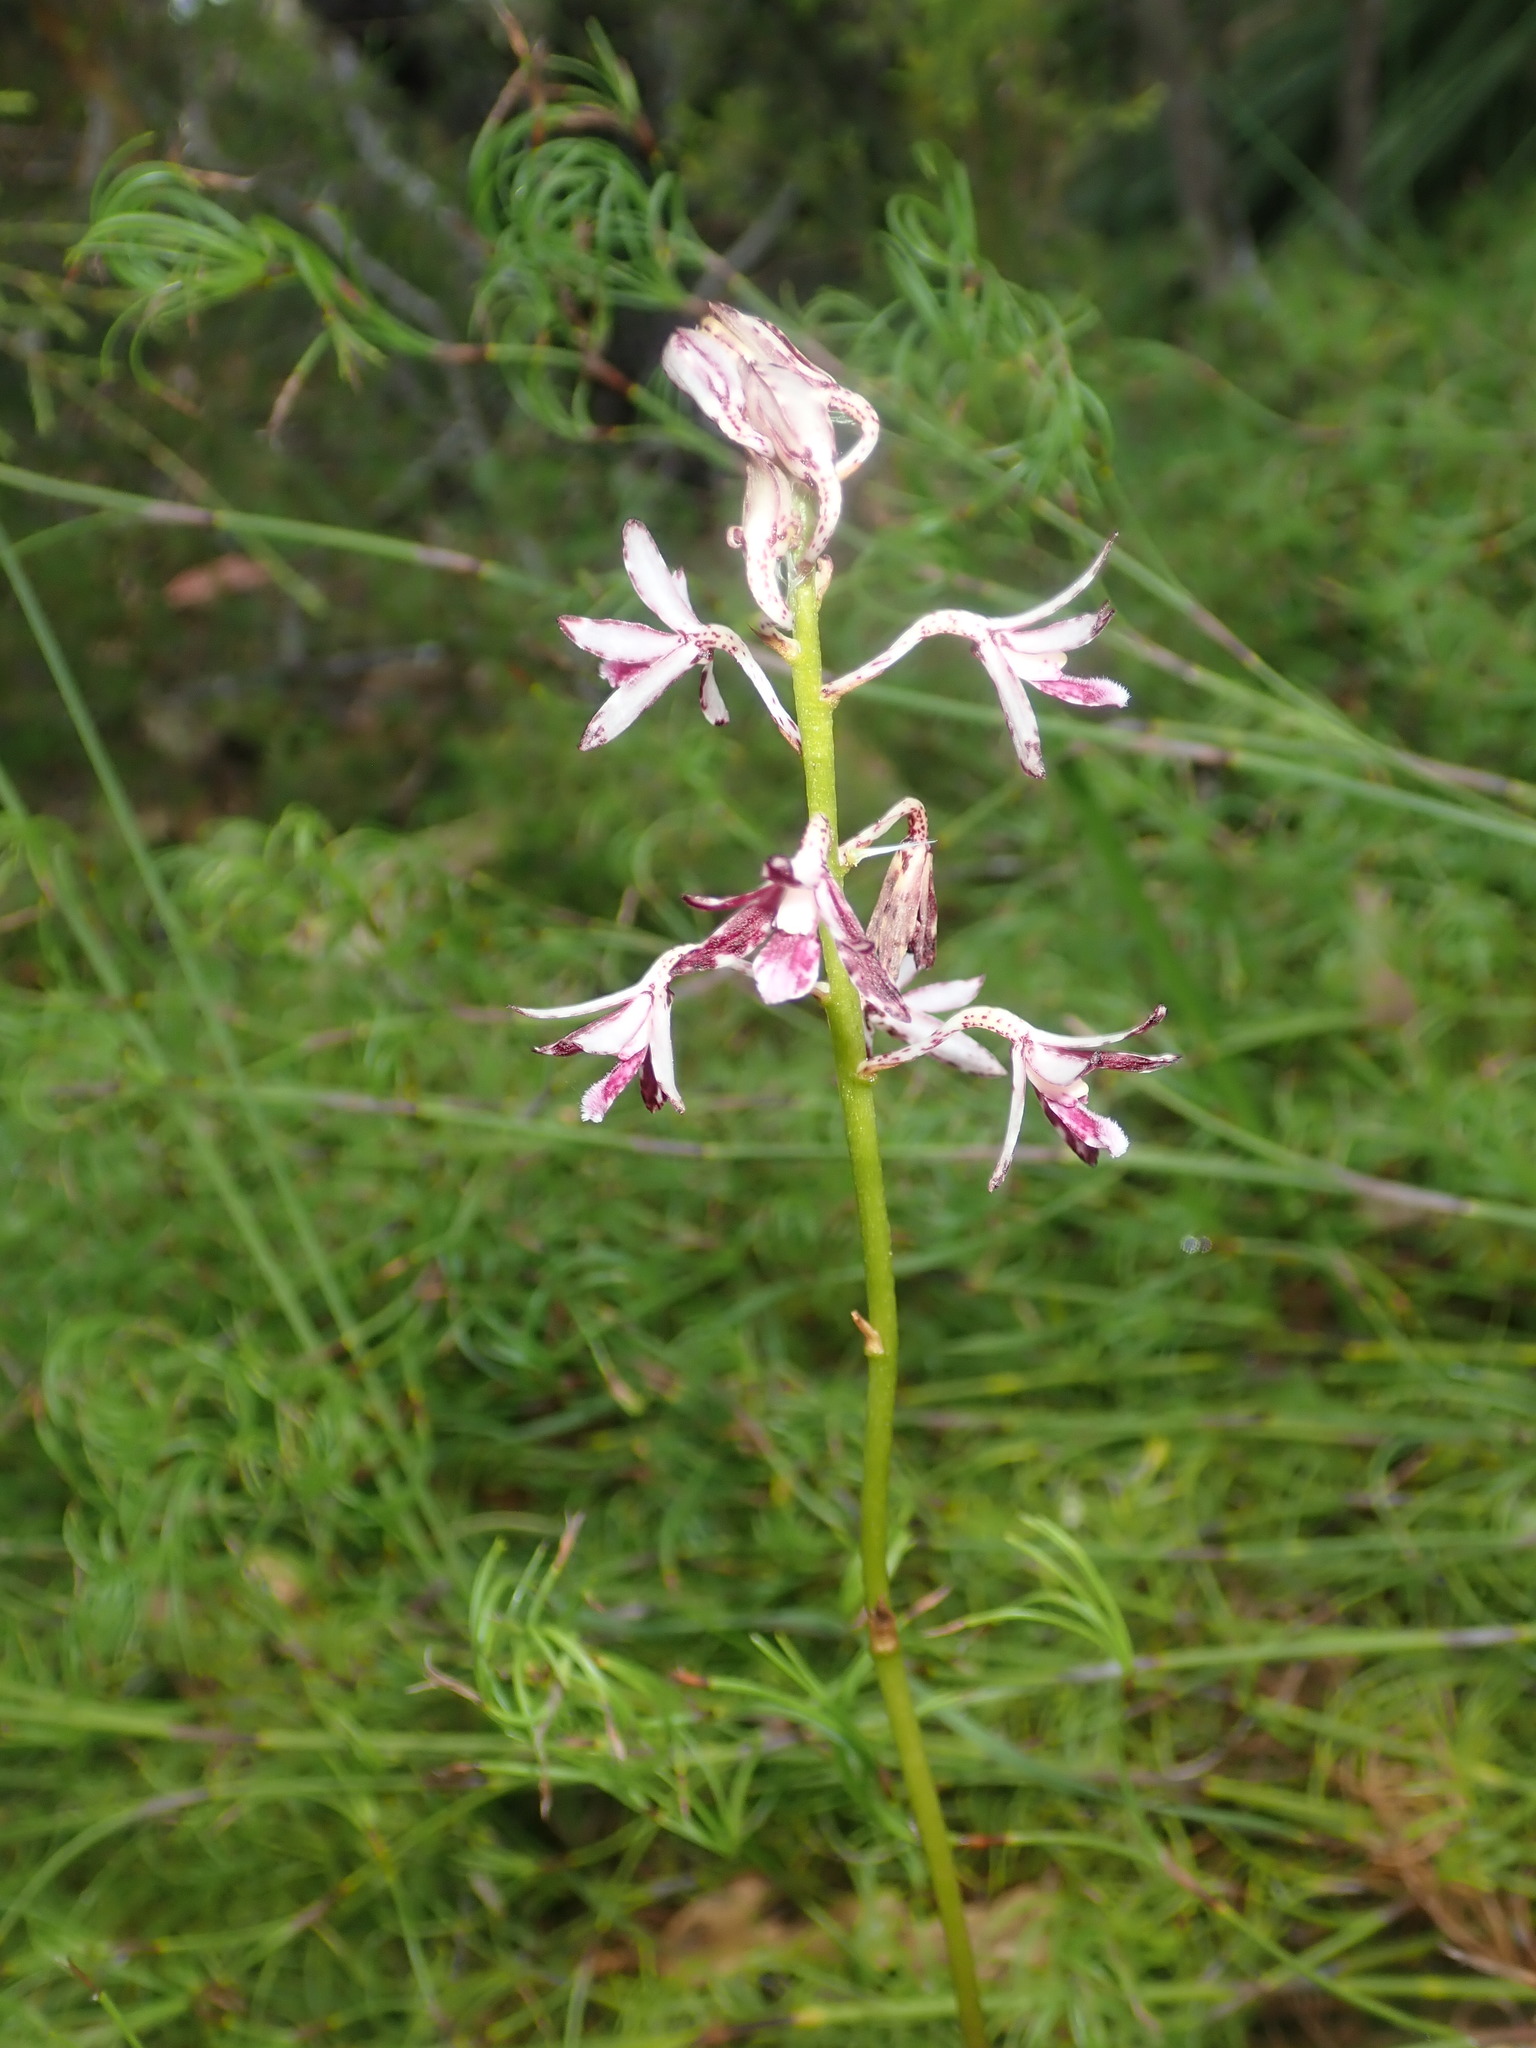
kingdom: Plantae
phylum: Tracheophyta
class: Liliopsida
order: Asparagales
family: Orchidaceae
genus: Dipodium
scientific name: Dipodium variegatum
